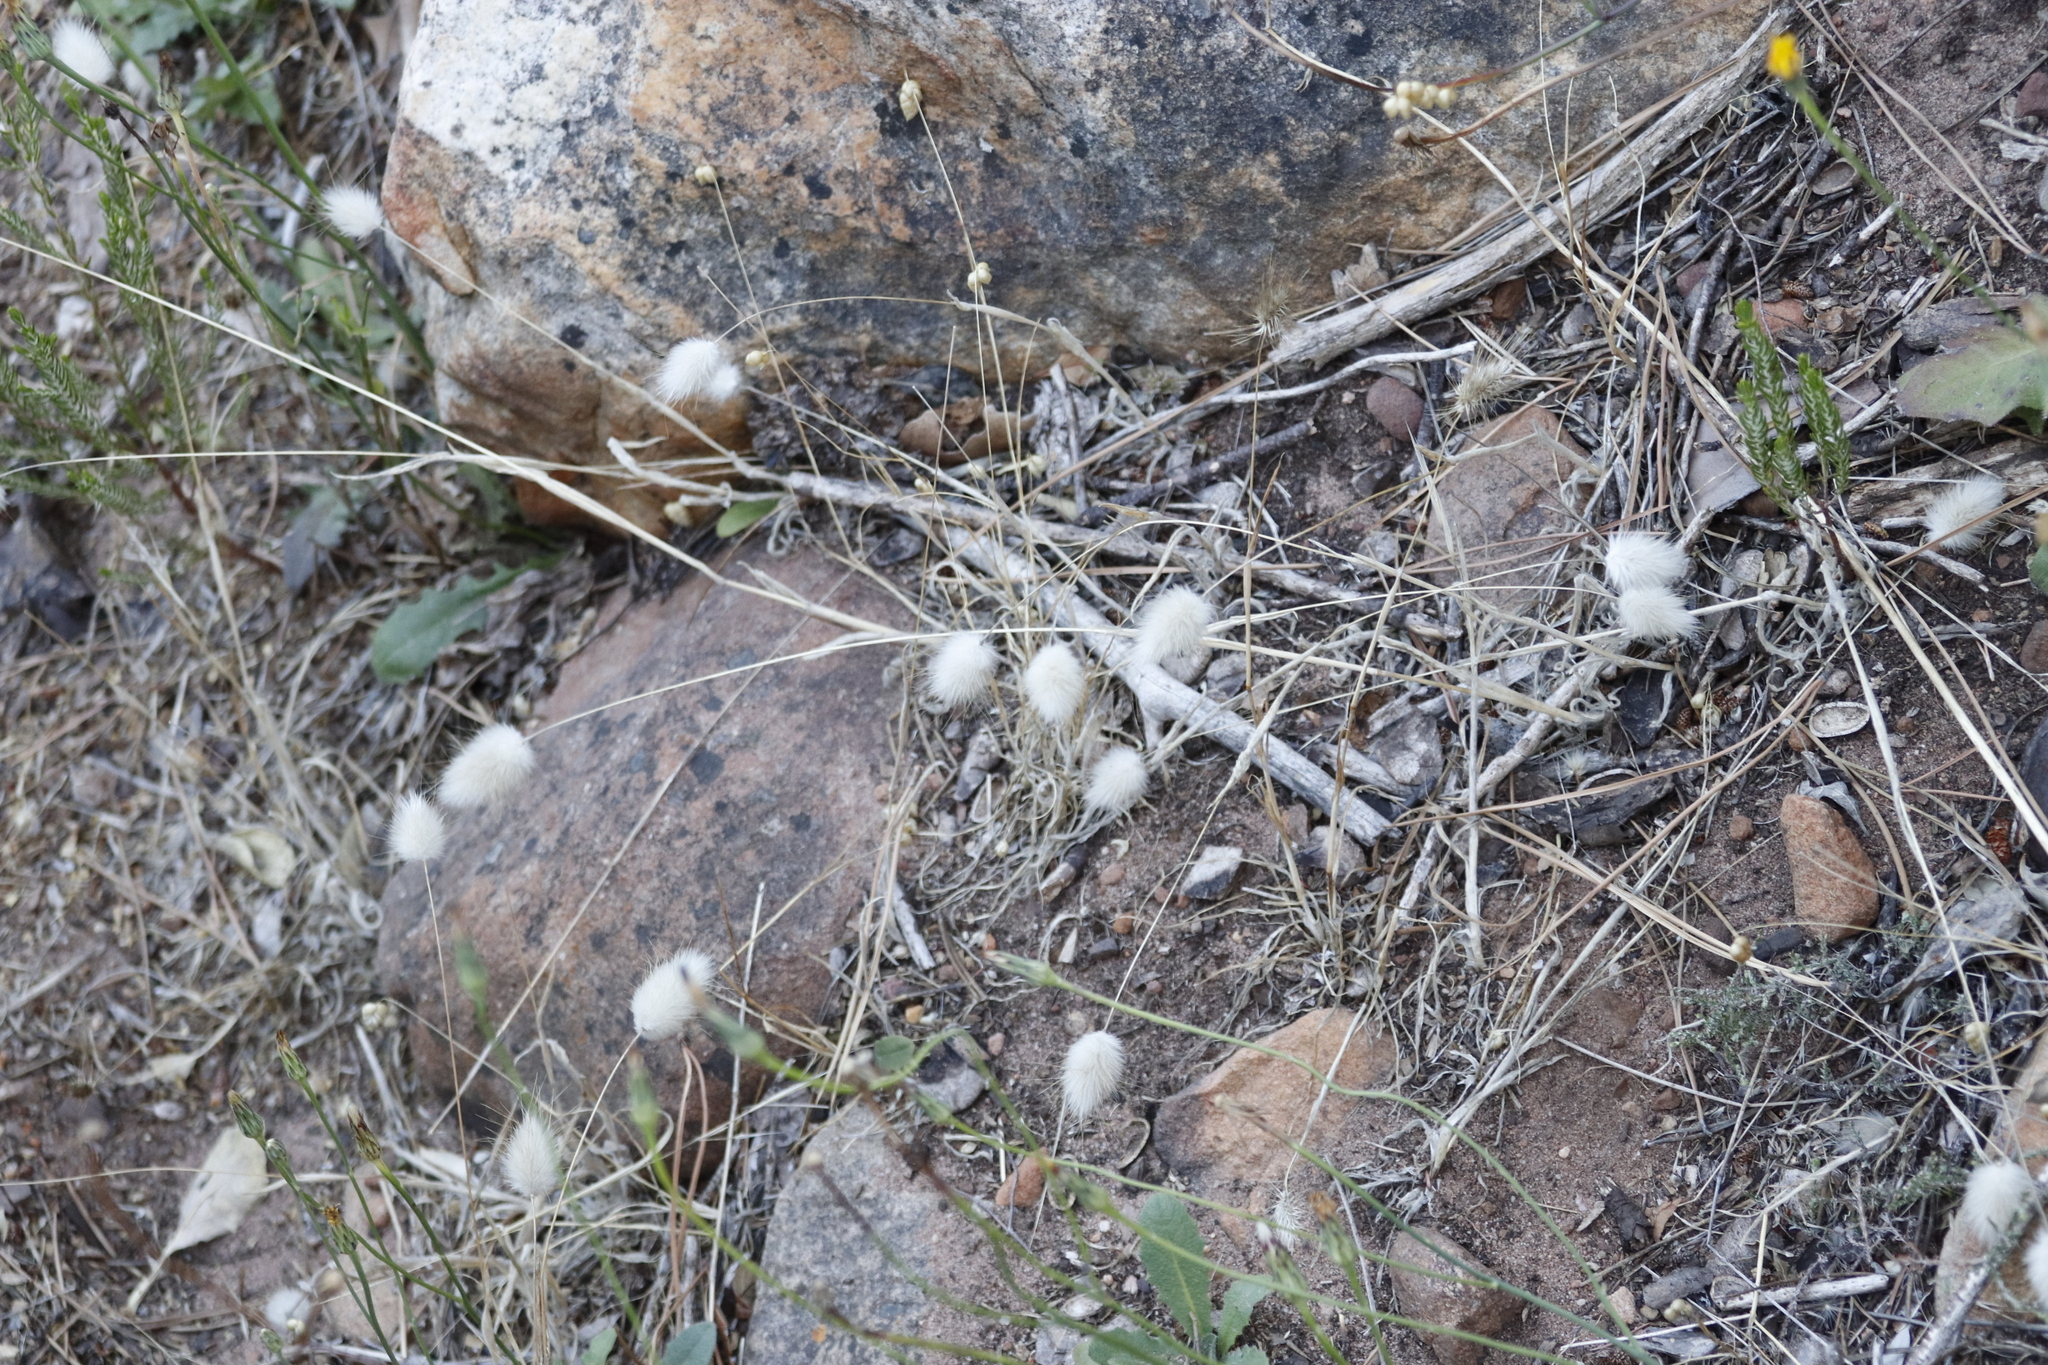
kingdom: Plantae
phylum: Tracheophyta
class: Liliopsida
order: Poales
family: Poaceae
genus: Lagurus
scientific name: Lagurus ovatus
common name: Hare's-tail
